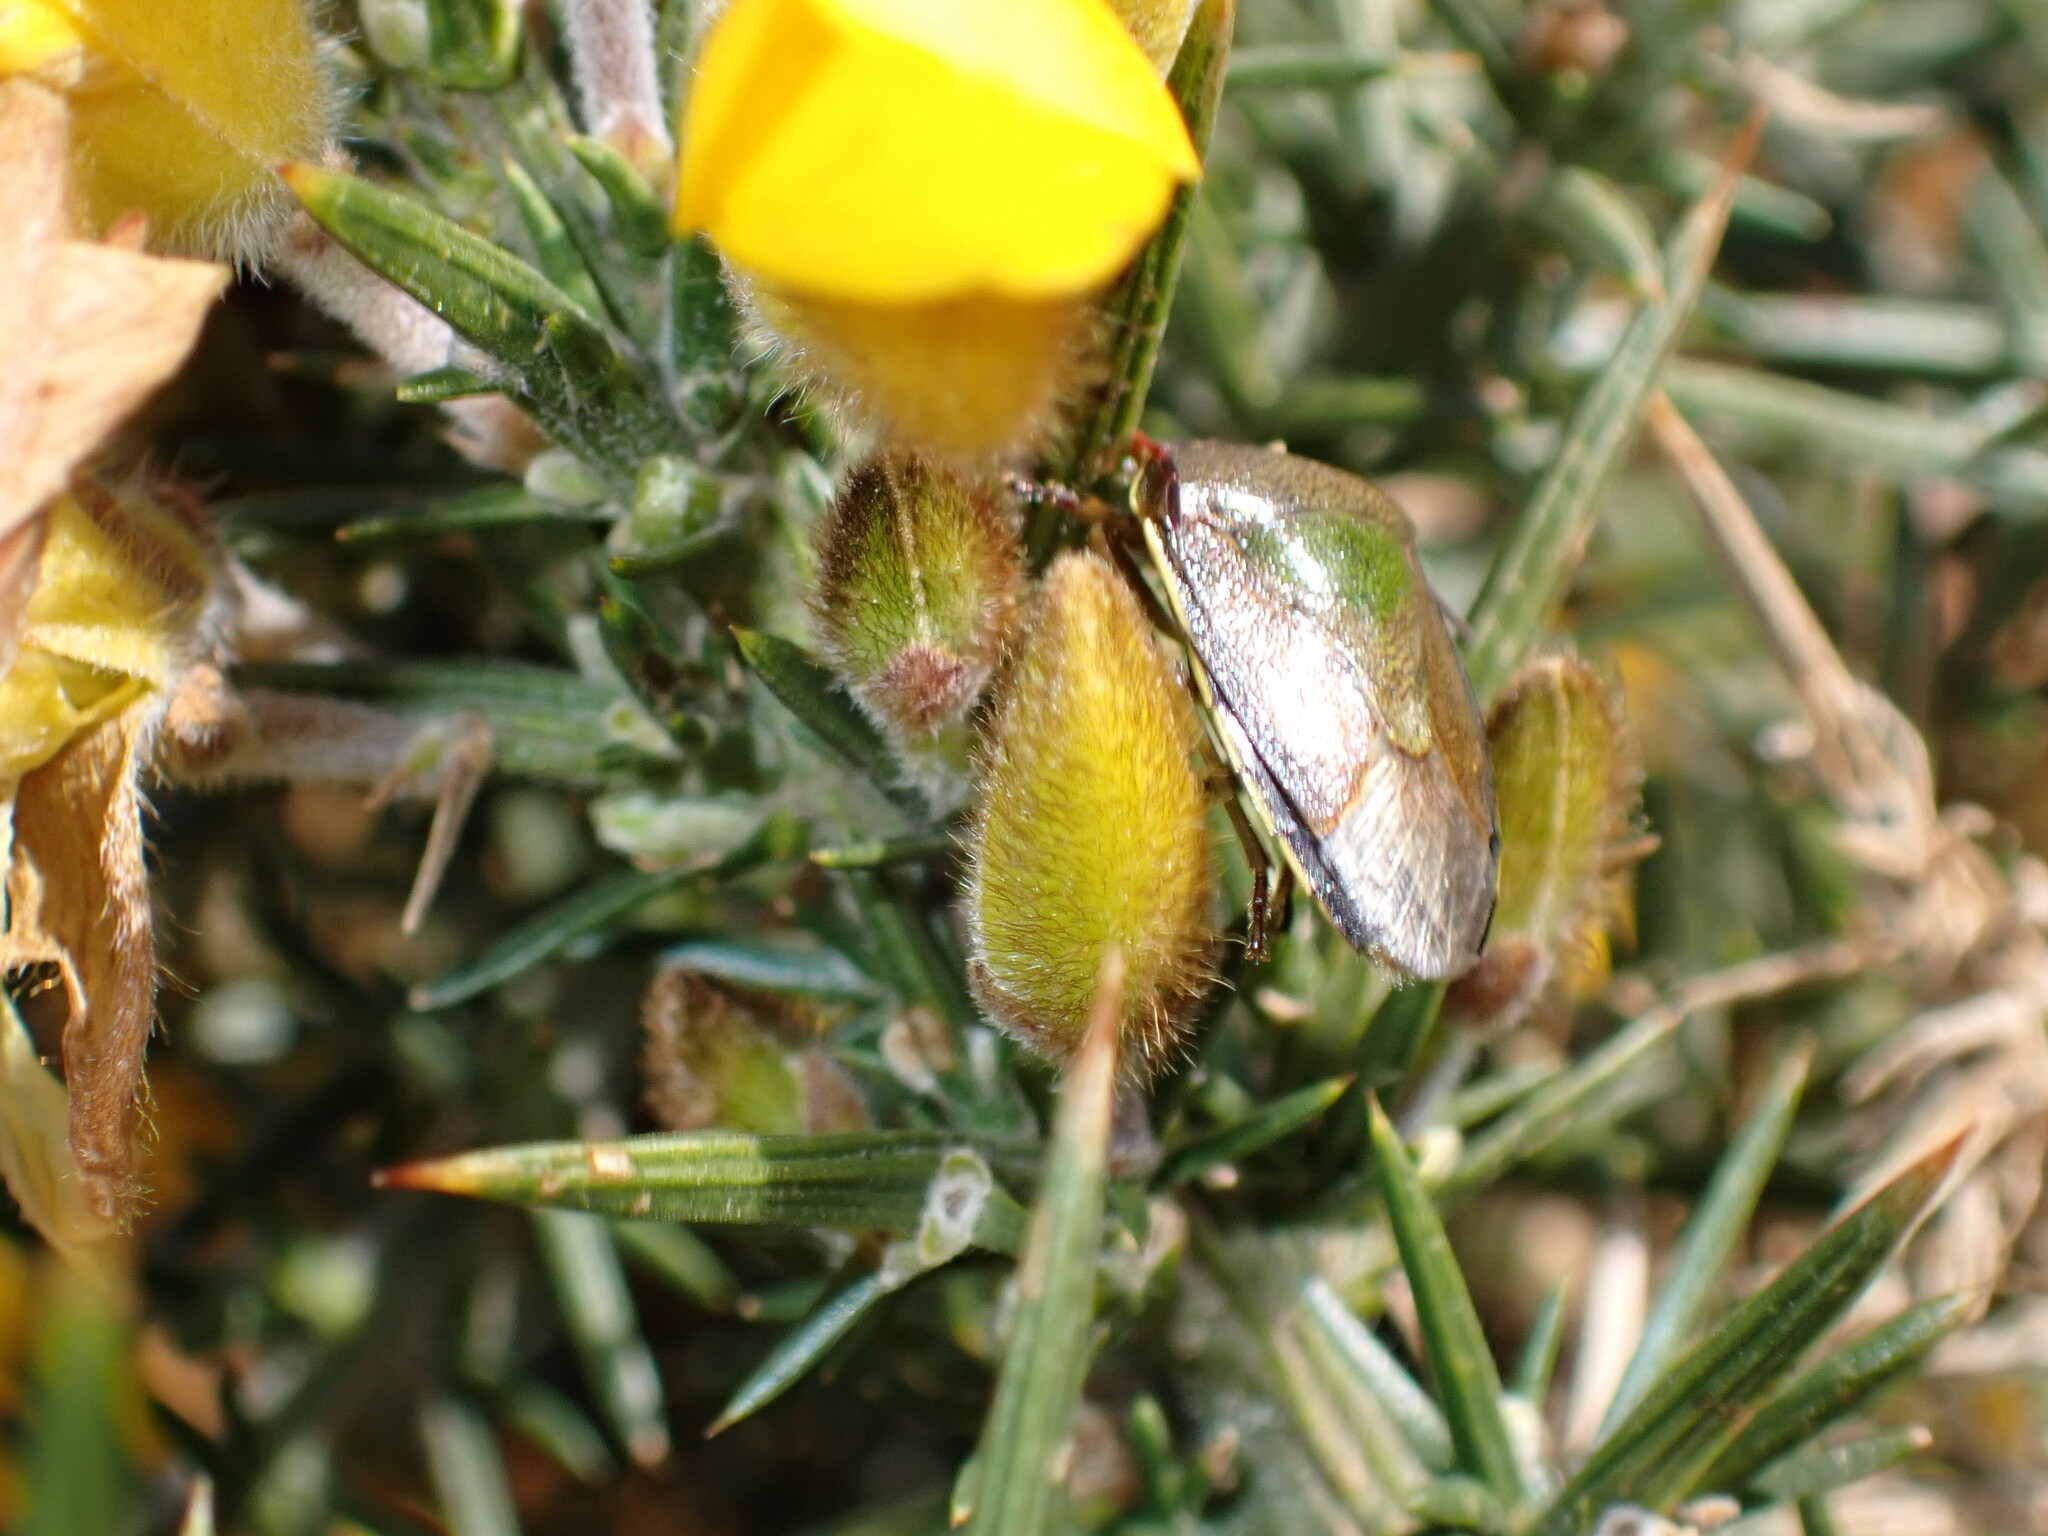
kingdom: Animalia
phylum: Arthropoda
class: Insecta
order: Hemiptera
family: Pentatomidae
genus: Piezodorus
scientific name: Piezodorus lituratus
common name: Stink bug
